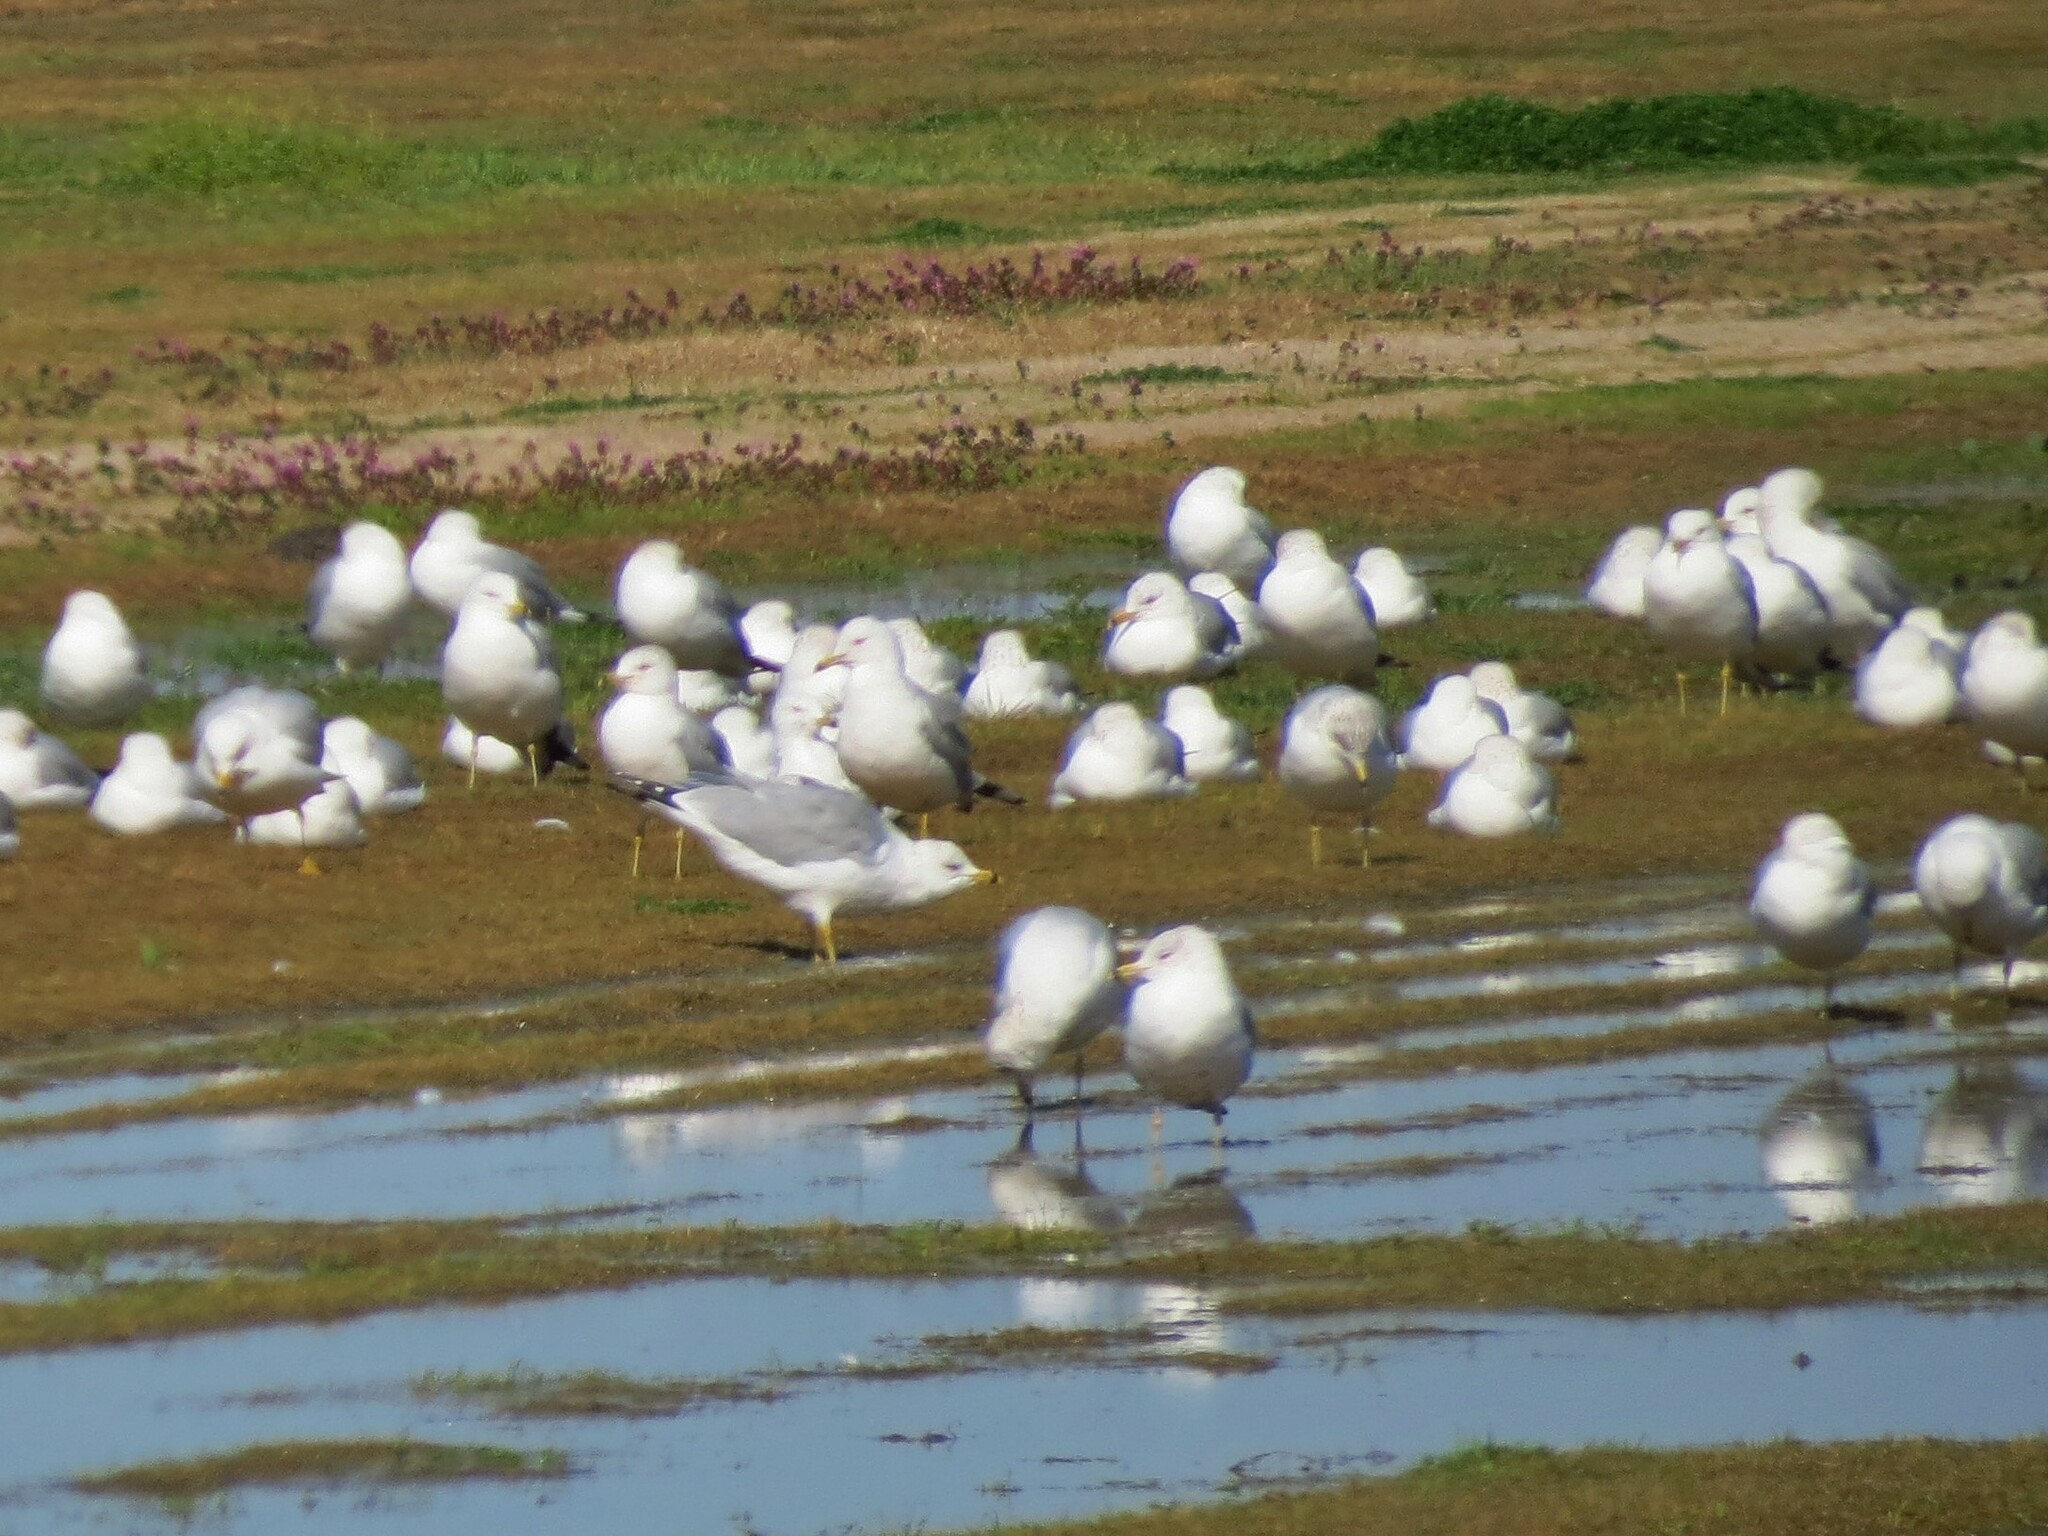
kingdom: Animalia
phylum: Chordata
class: Aves
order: Charadriiformes
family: Laridae
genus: Larus
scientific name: Larus delawarensis
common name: Ring-billed gull
